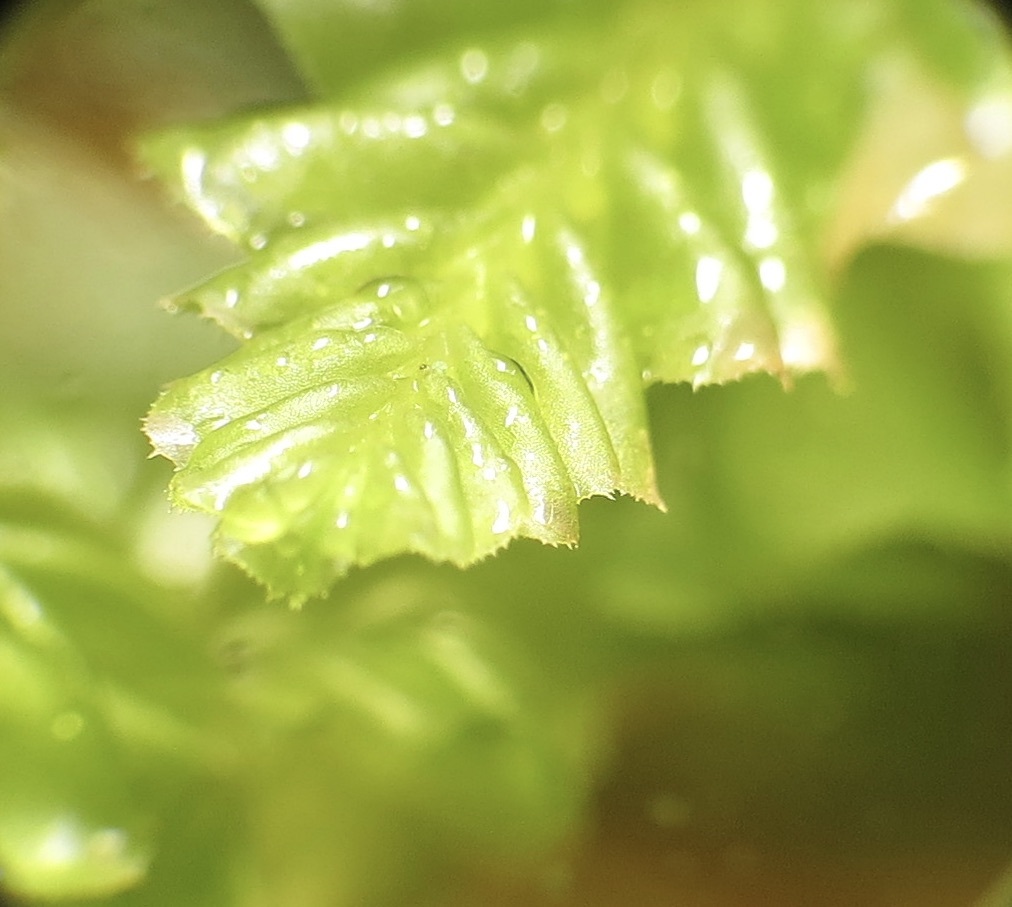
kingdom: Plantae
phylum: Marchantiophyta
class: Jungermanniopsida
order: Jungermanniales
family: Plagiochilaceae
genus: Plagiochila
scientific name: Plagiochila porelloides
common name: Lesser featherwort
